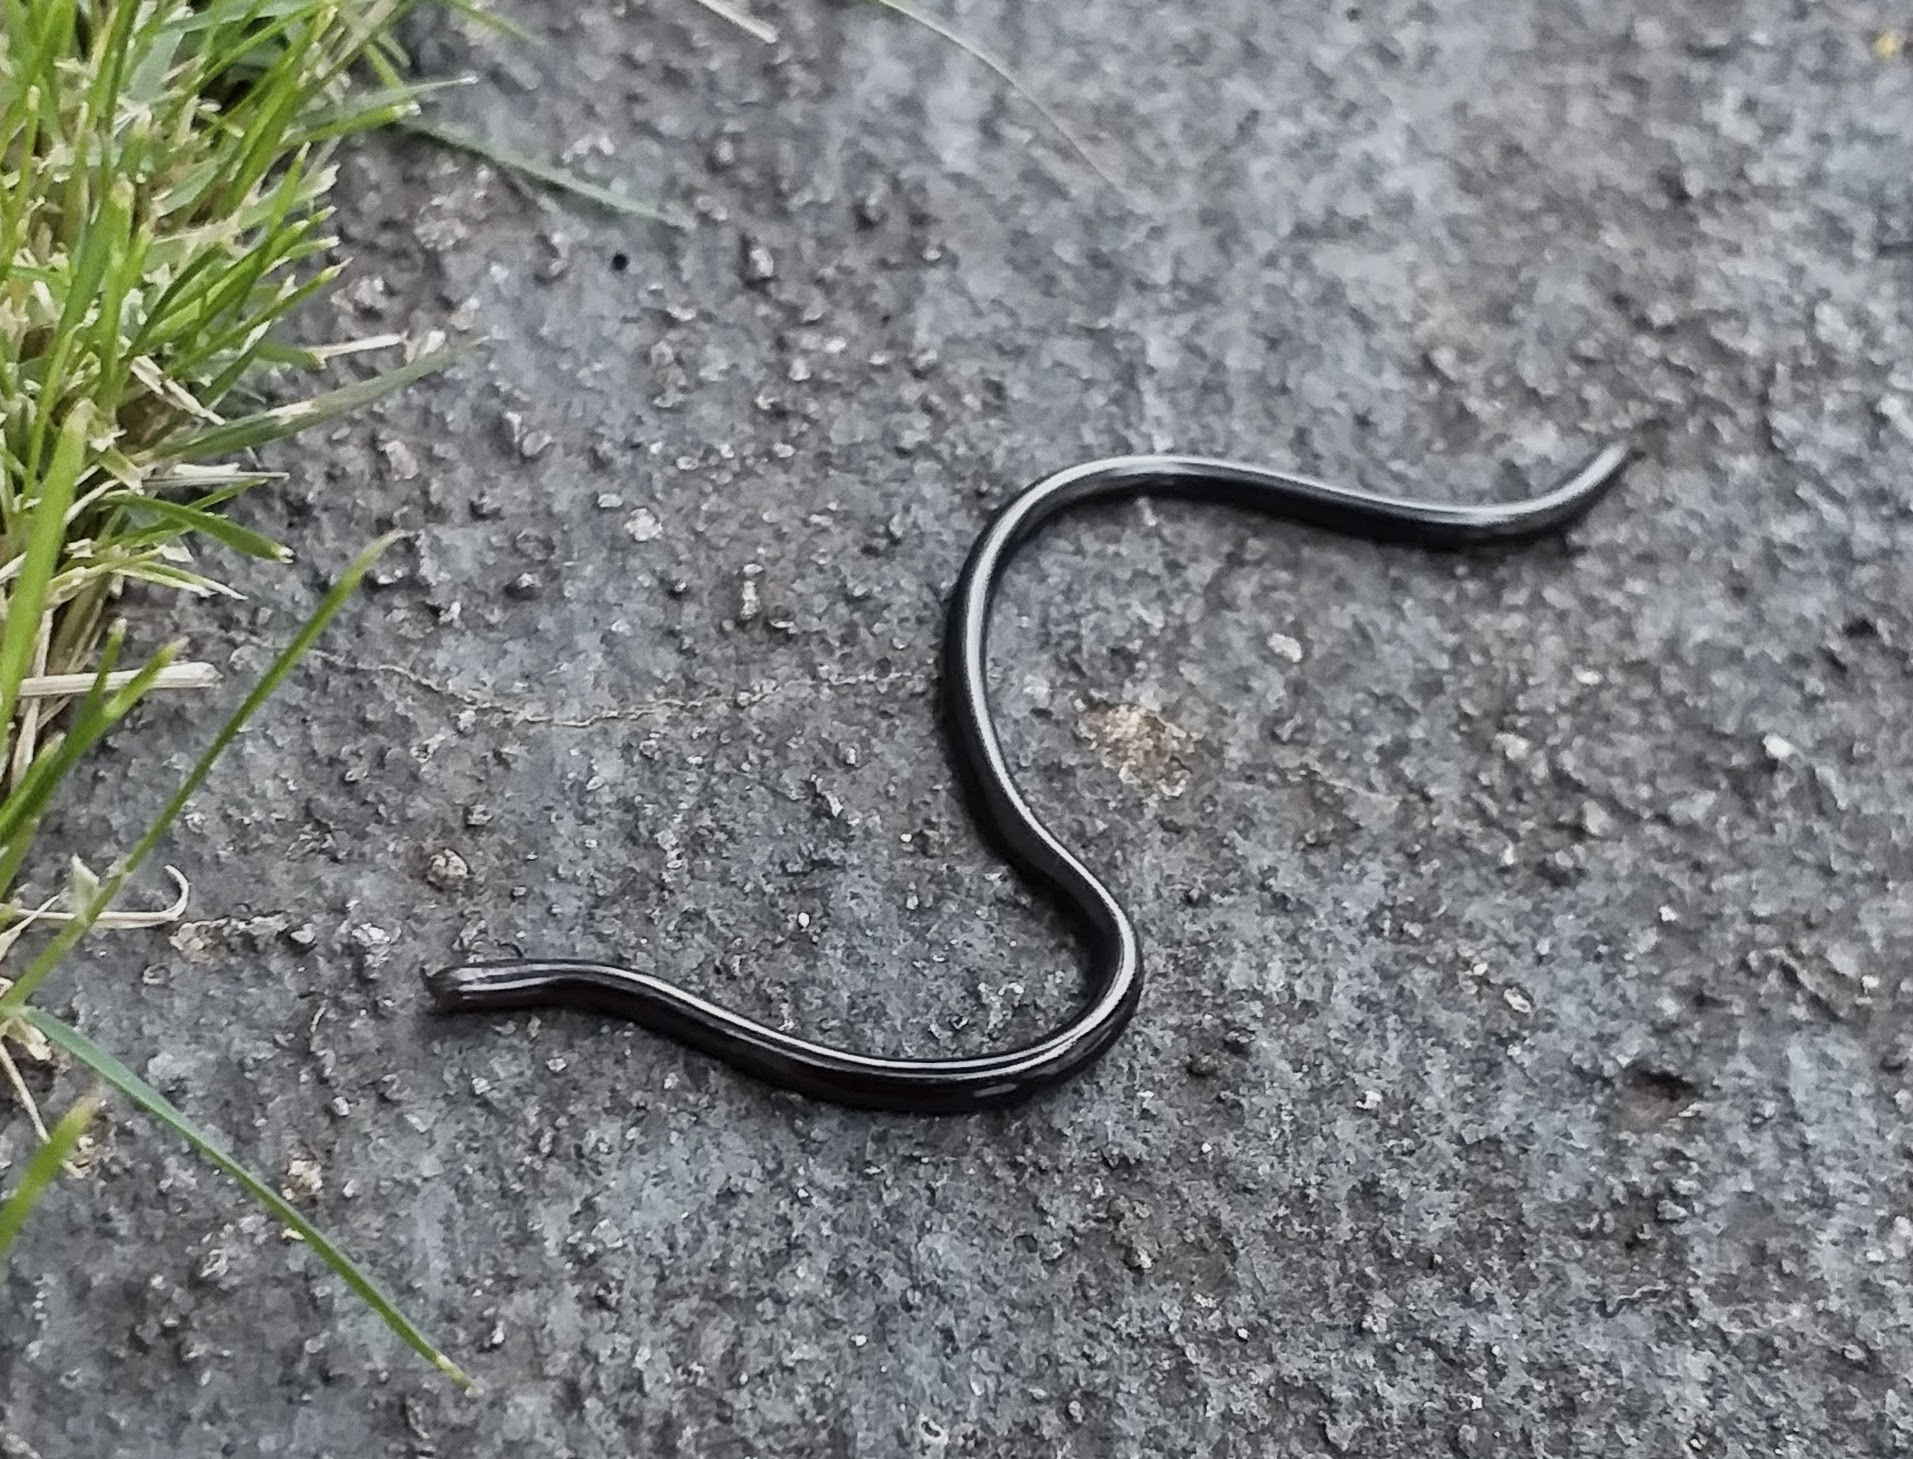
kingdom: Animalia
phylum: Chordata
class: Squamata
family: Typhlopidae
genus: Indotyphlops
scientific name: Indotyphlops braminus
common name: Brahminy blindsnake
